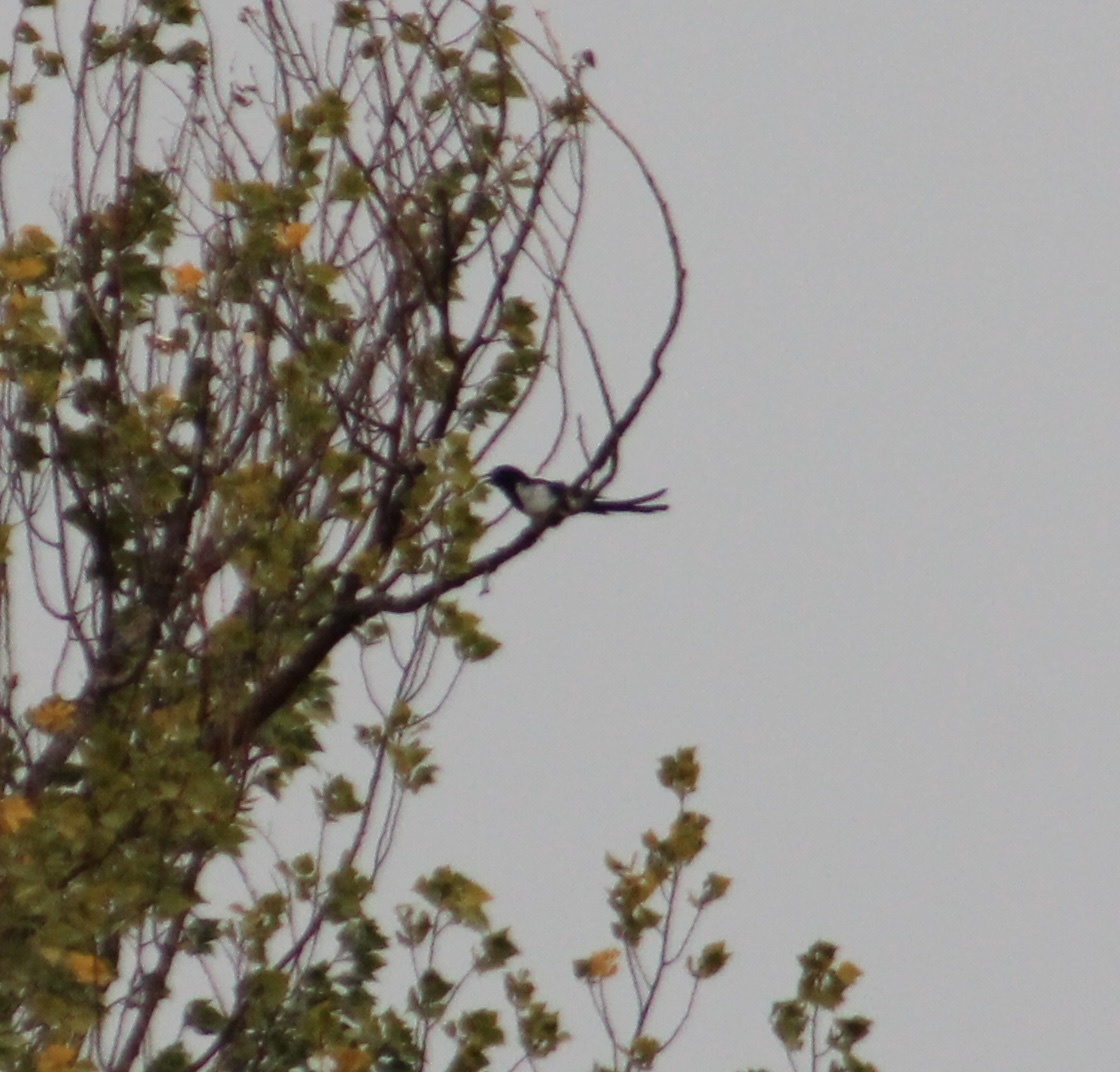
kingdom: Animalia
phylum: Chordata
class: Aves
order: Passeriformes
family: Corvidae
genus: Pica
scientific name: Pica hudsonia
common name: Black-billed magpie
